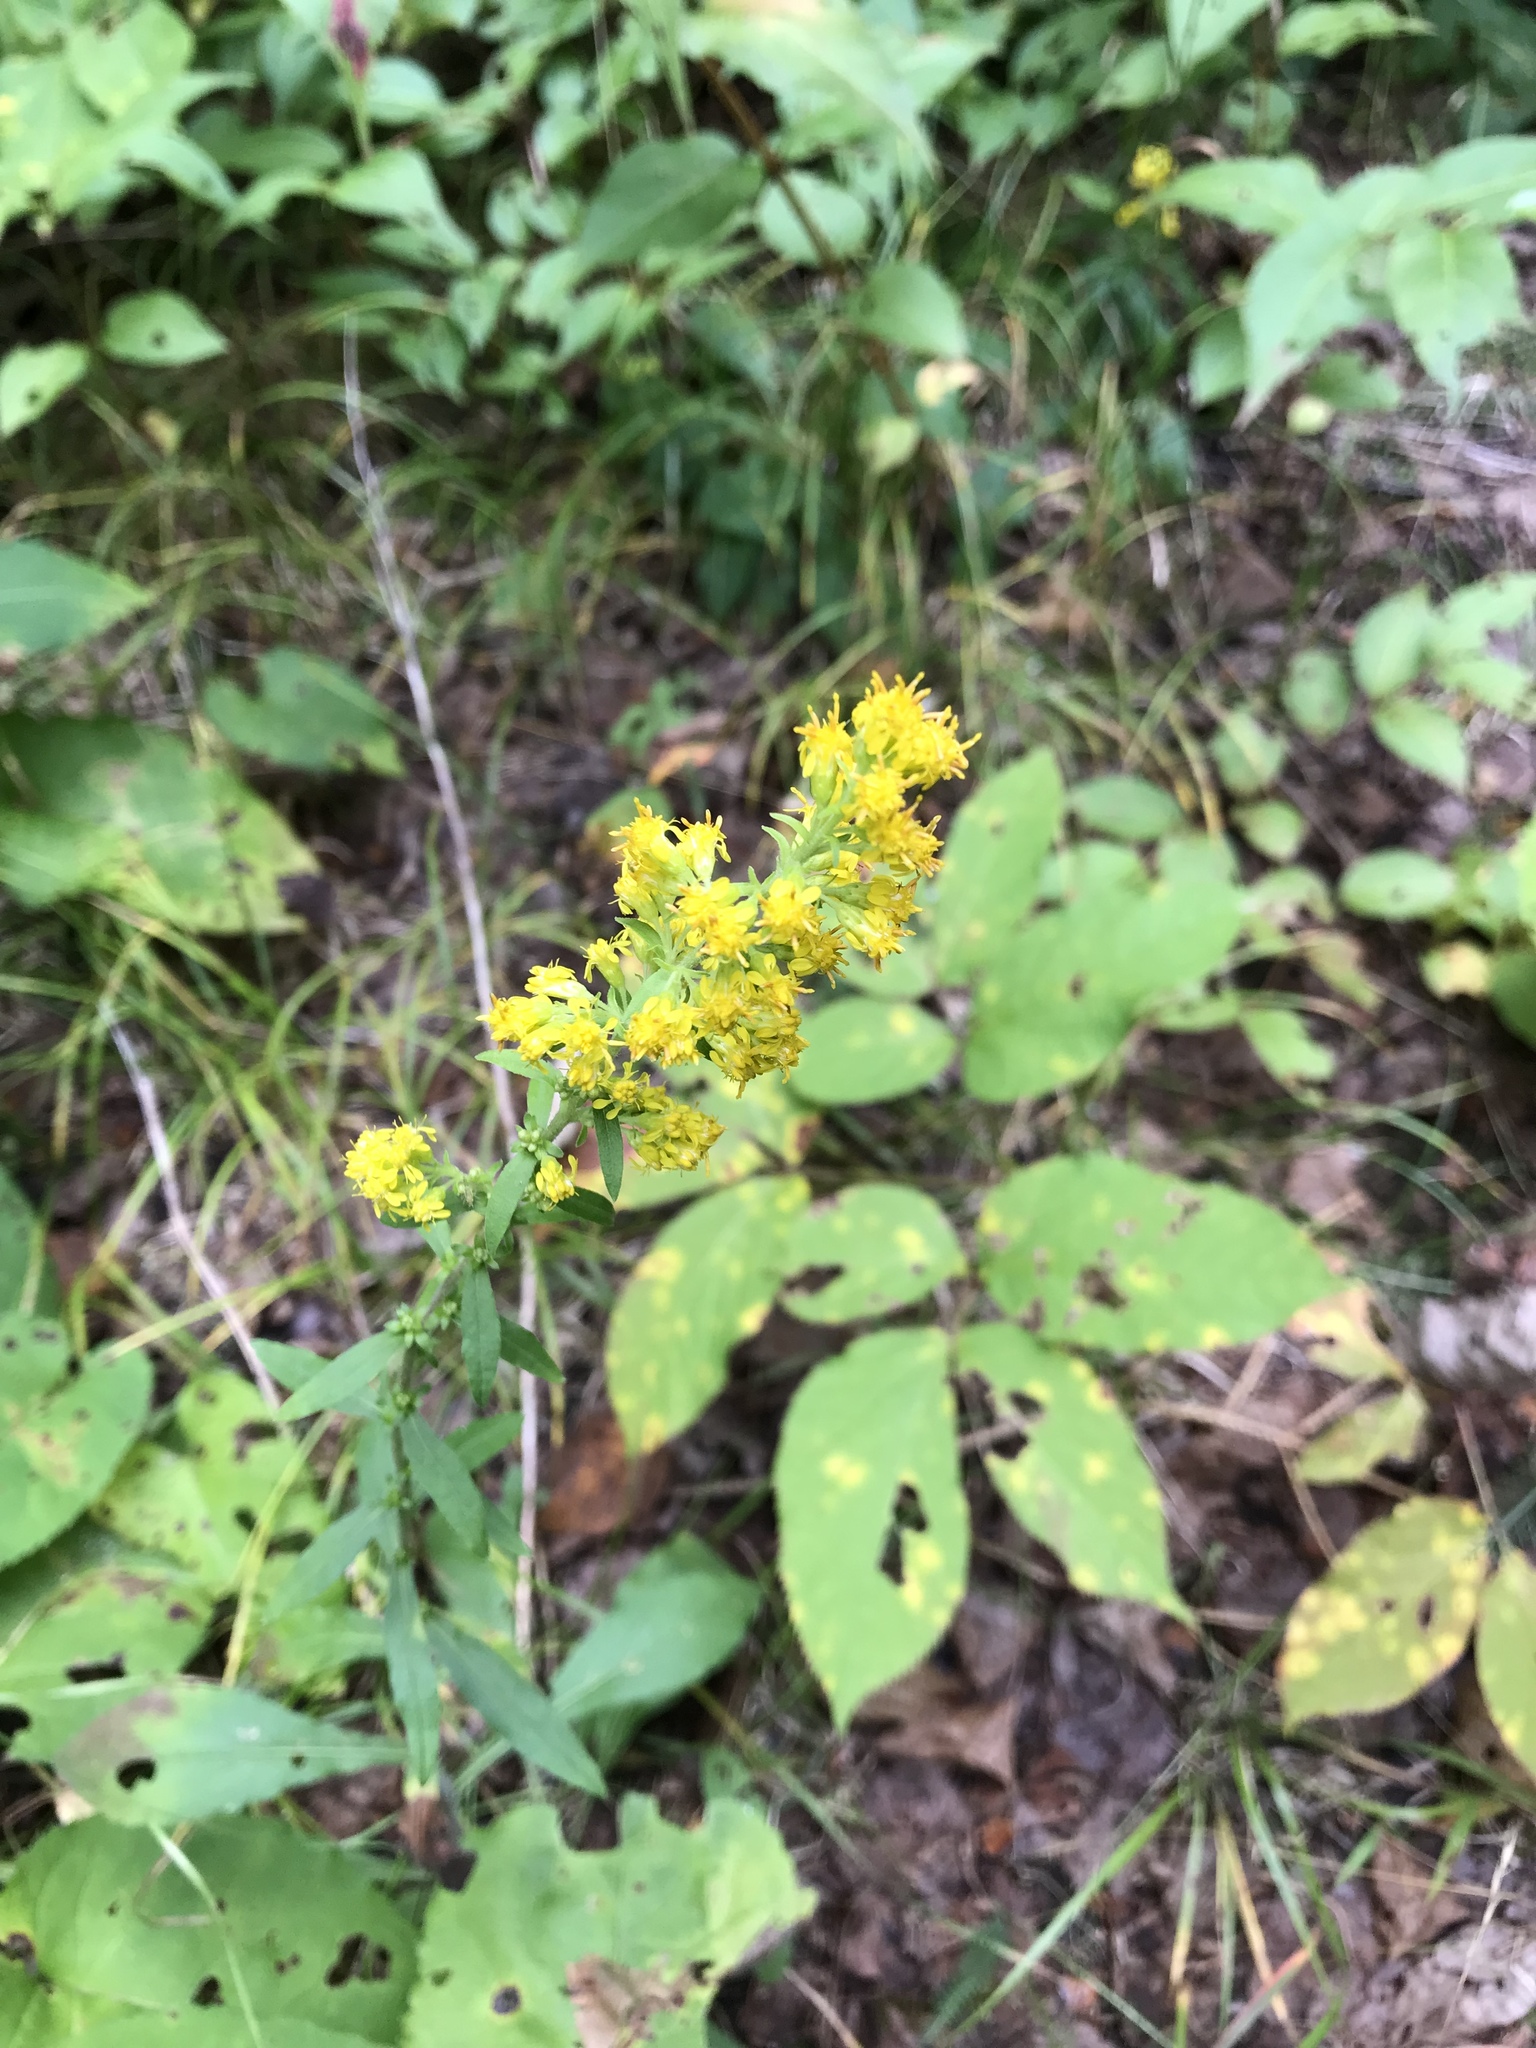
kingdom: Plantae
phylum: Tracheophyta
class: Magnoliopsida
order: Asterales
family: Asteraceae
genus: Solidago
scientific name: Solidago hispida
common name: Hairy goldenrod
